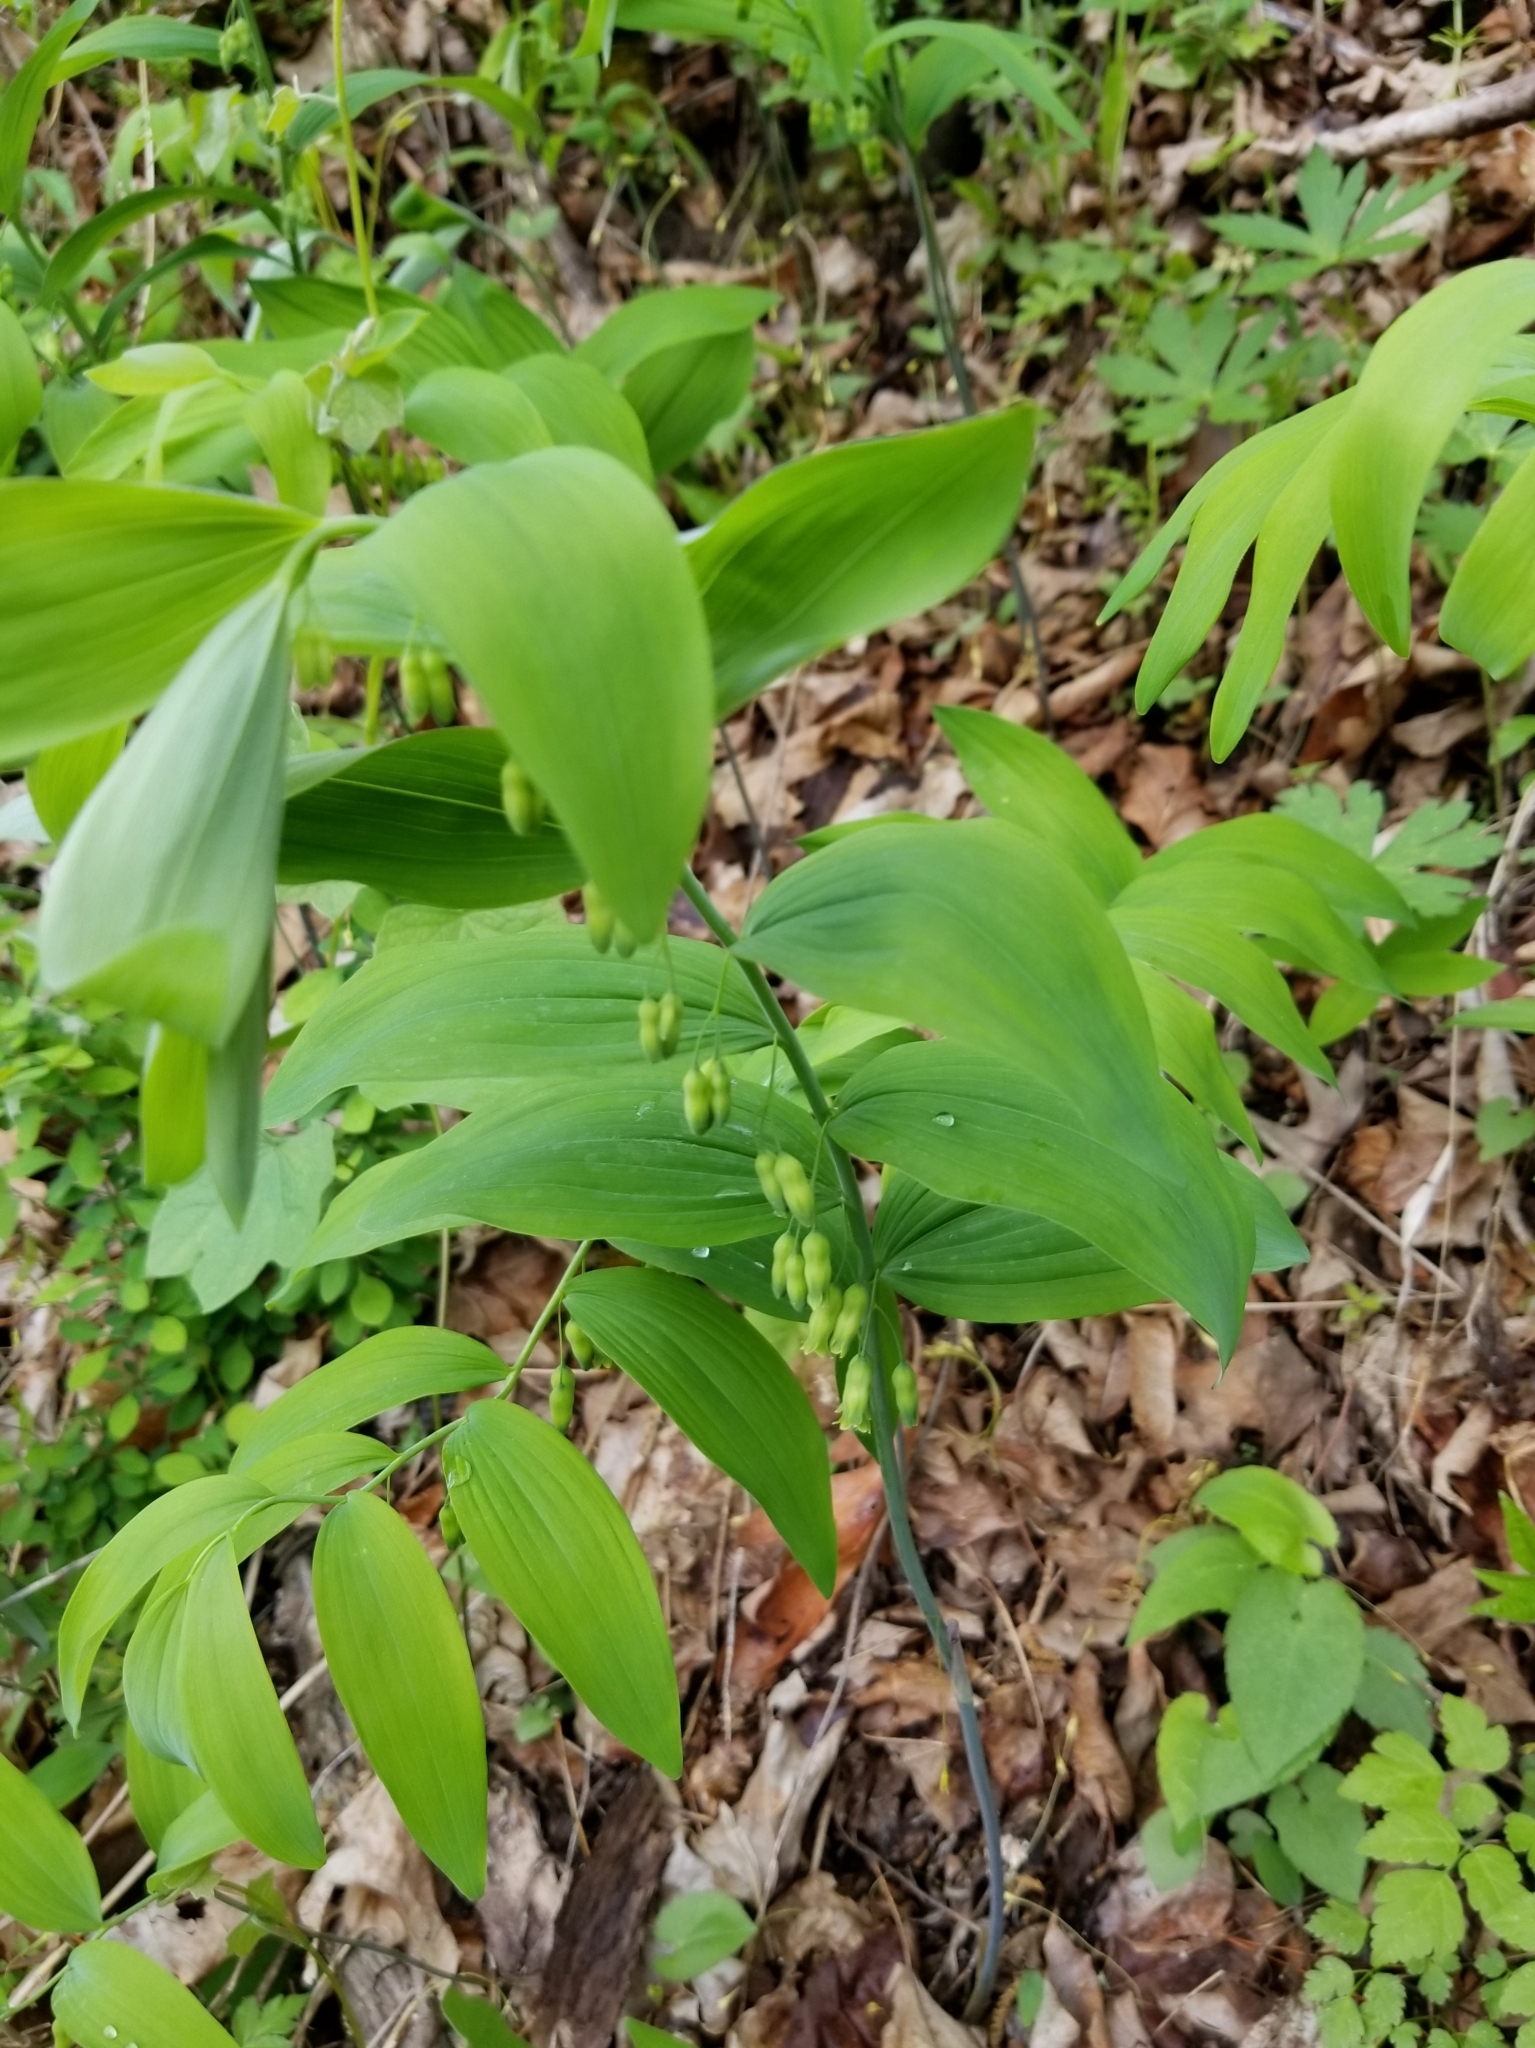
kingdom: Plantae
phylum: Tracheophyta
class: Liliopsida
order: Asparagales
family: Asparagaceae
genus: Polygonatum
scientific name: Polygonatum pubescens
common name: Downy solomon's seal
